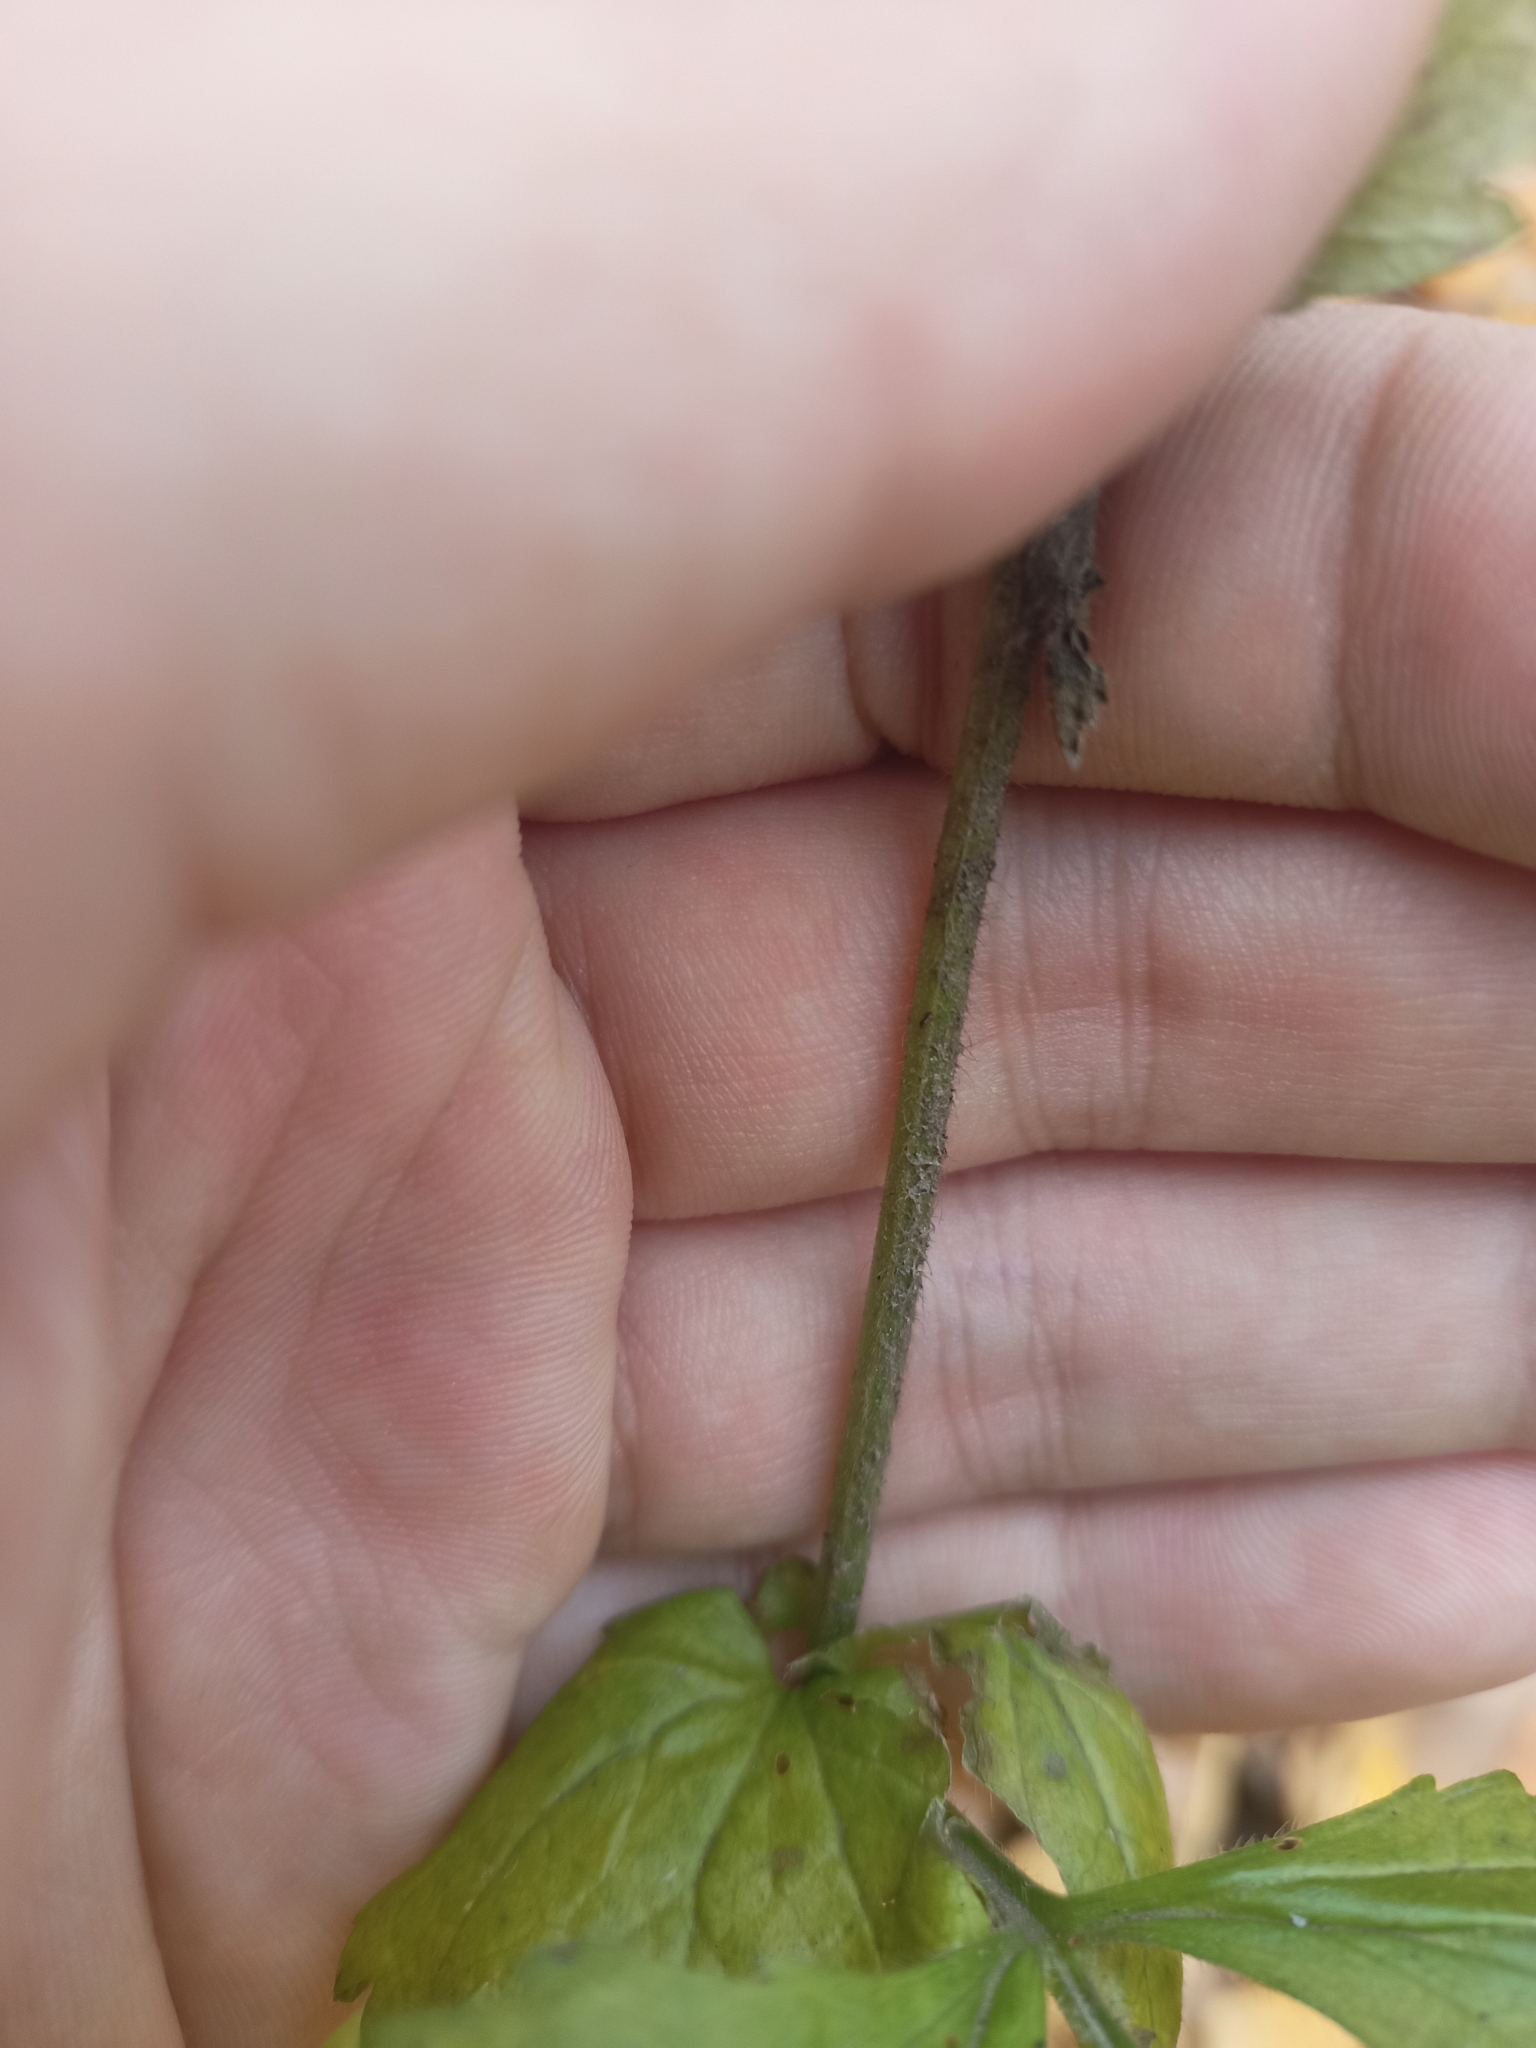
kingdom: Plantae
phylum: Tracheophyta
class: Magnoliopsida
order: Rosales
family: Rosaceae
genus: Geum
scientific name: Geum urbanum
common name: Wood avens
